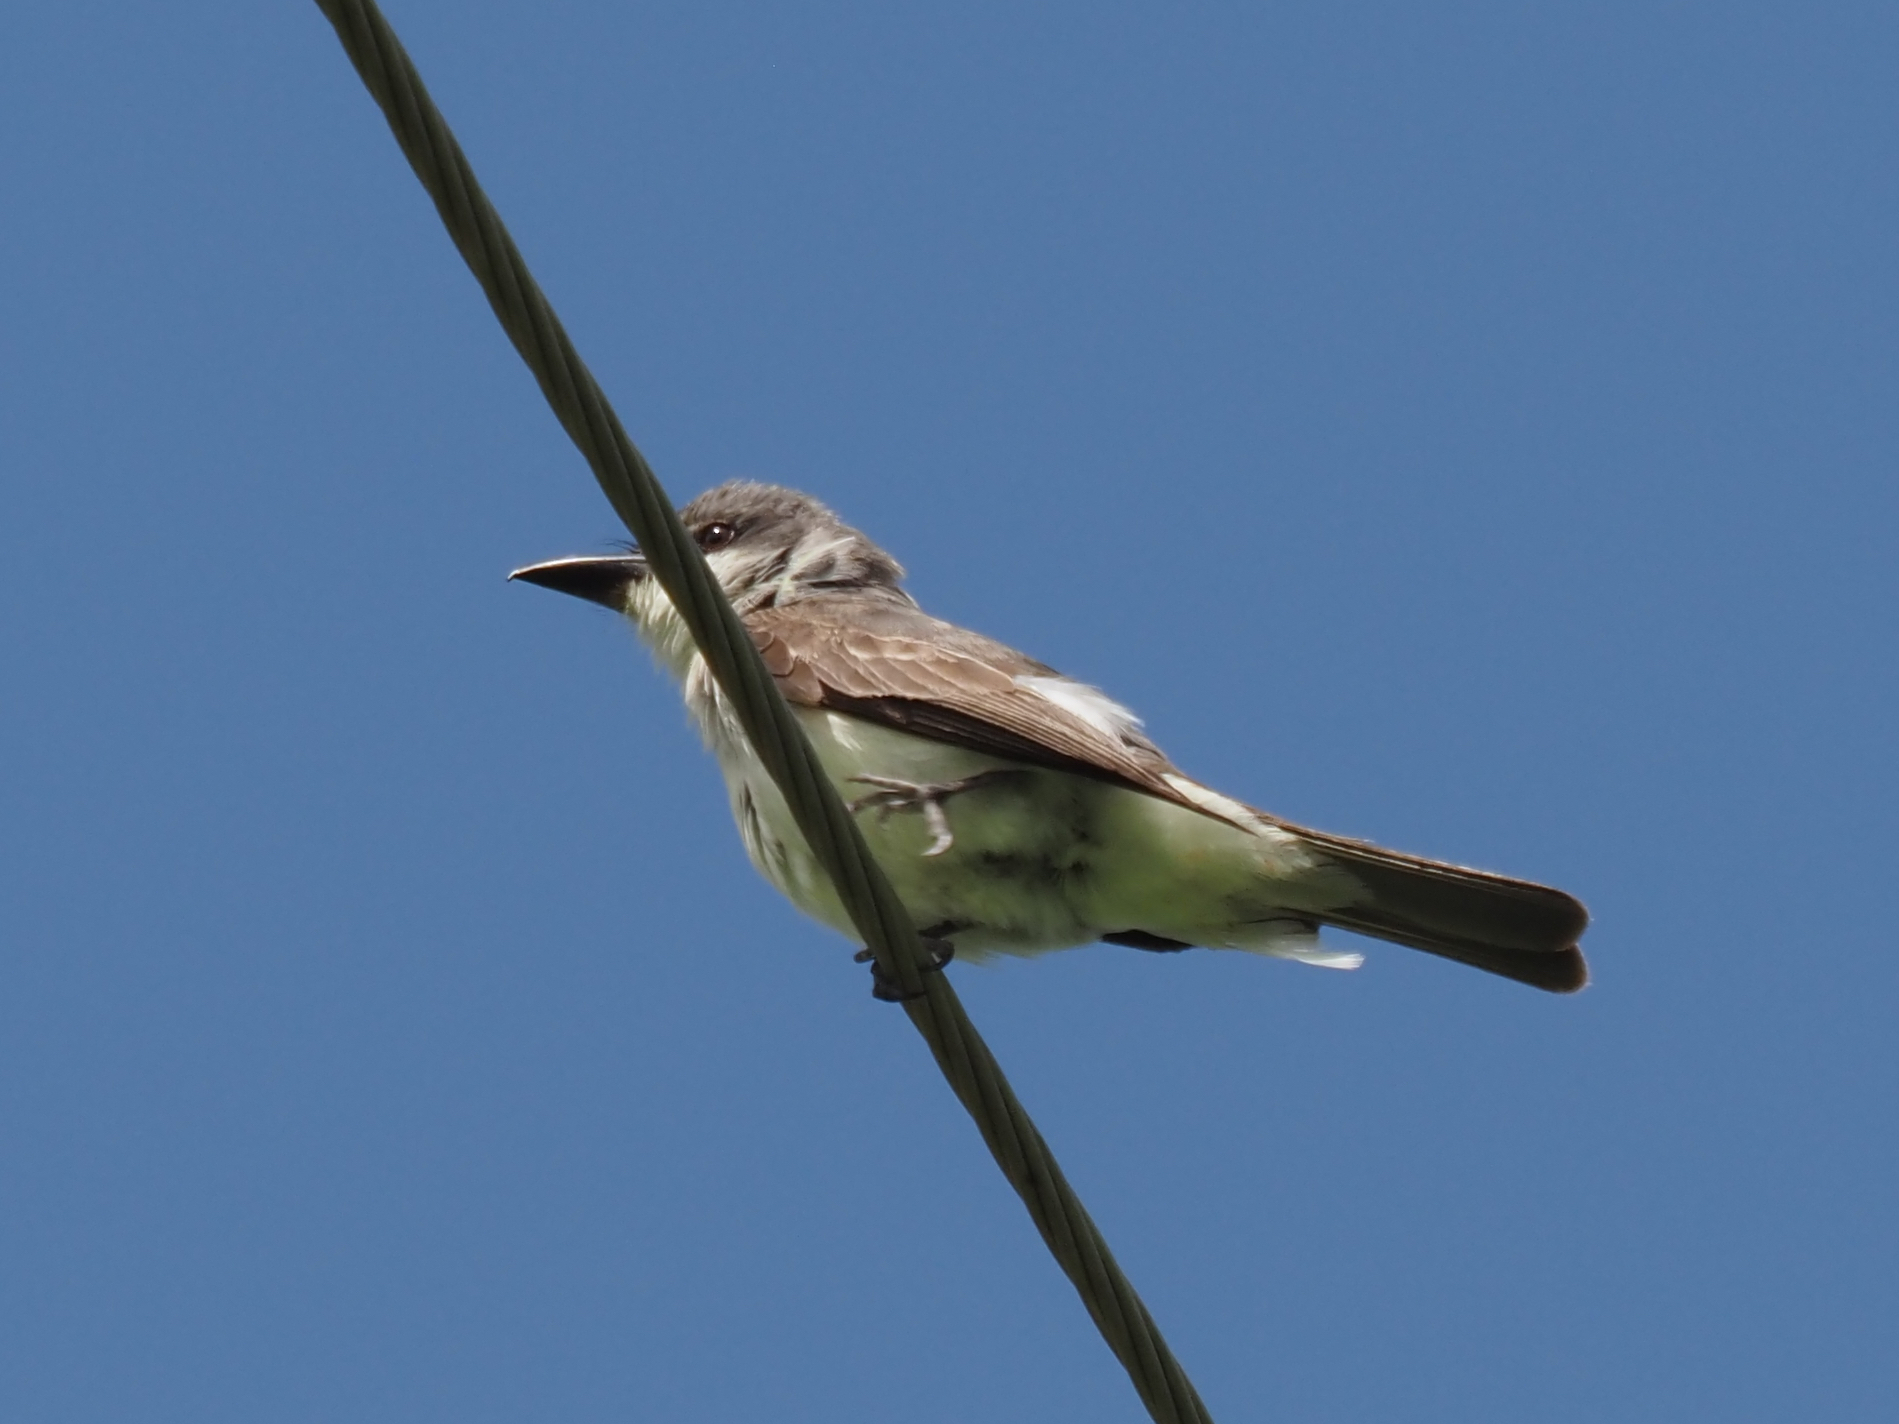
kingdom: Animalia
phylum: Chordata
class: Aves
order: Passeriformes
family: Tyrannidae
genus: Tyrannus
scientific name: Tyrannus dominicensis
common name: Gray kingbird
